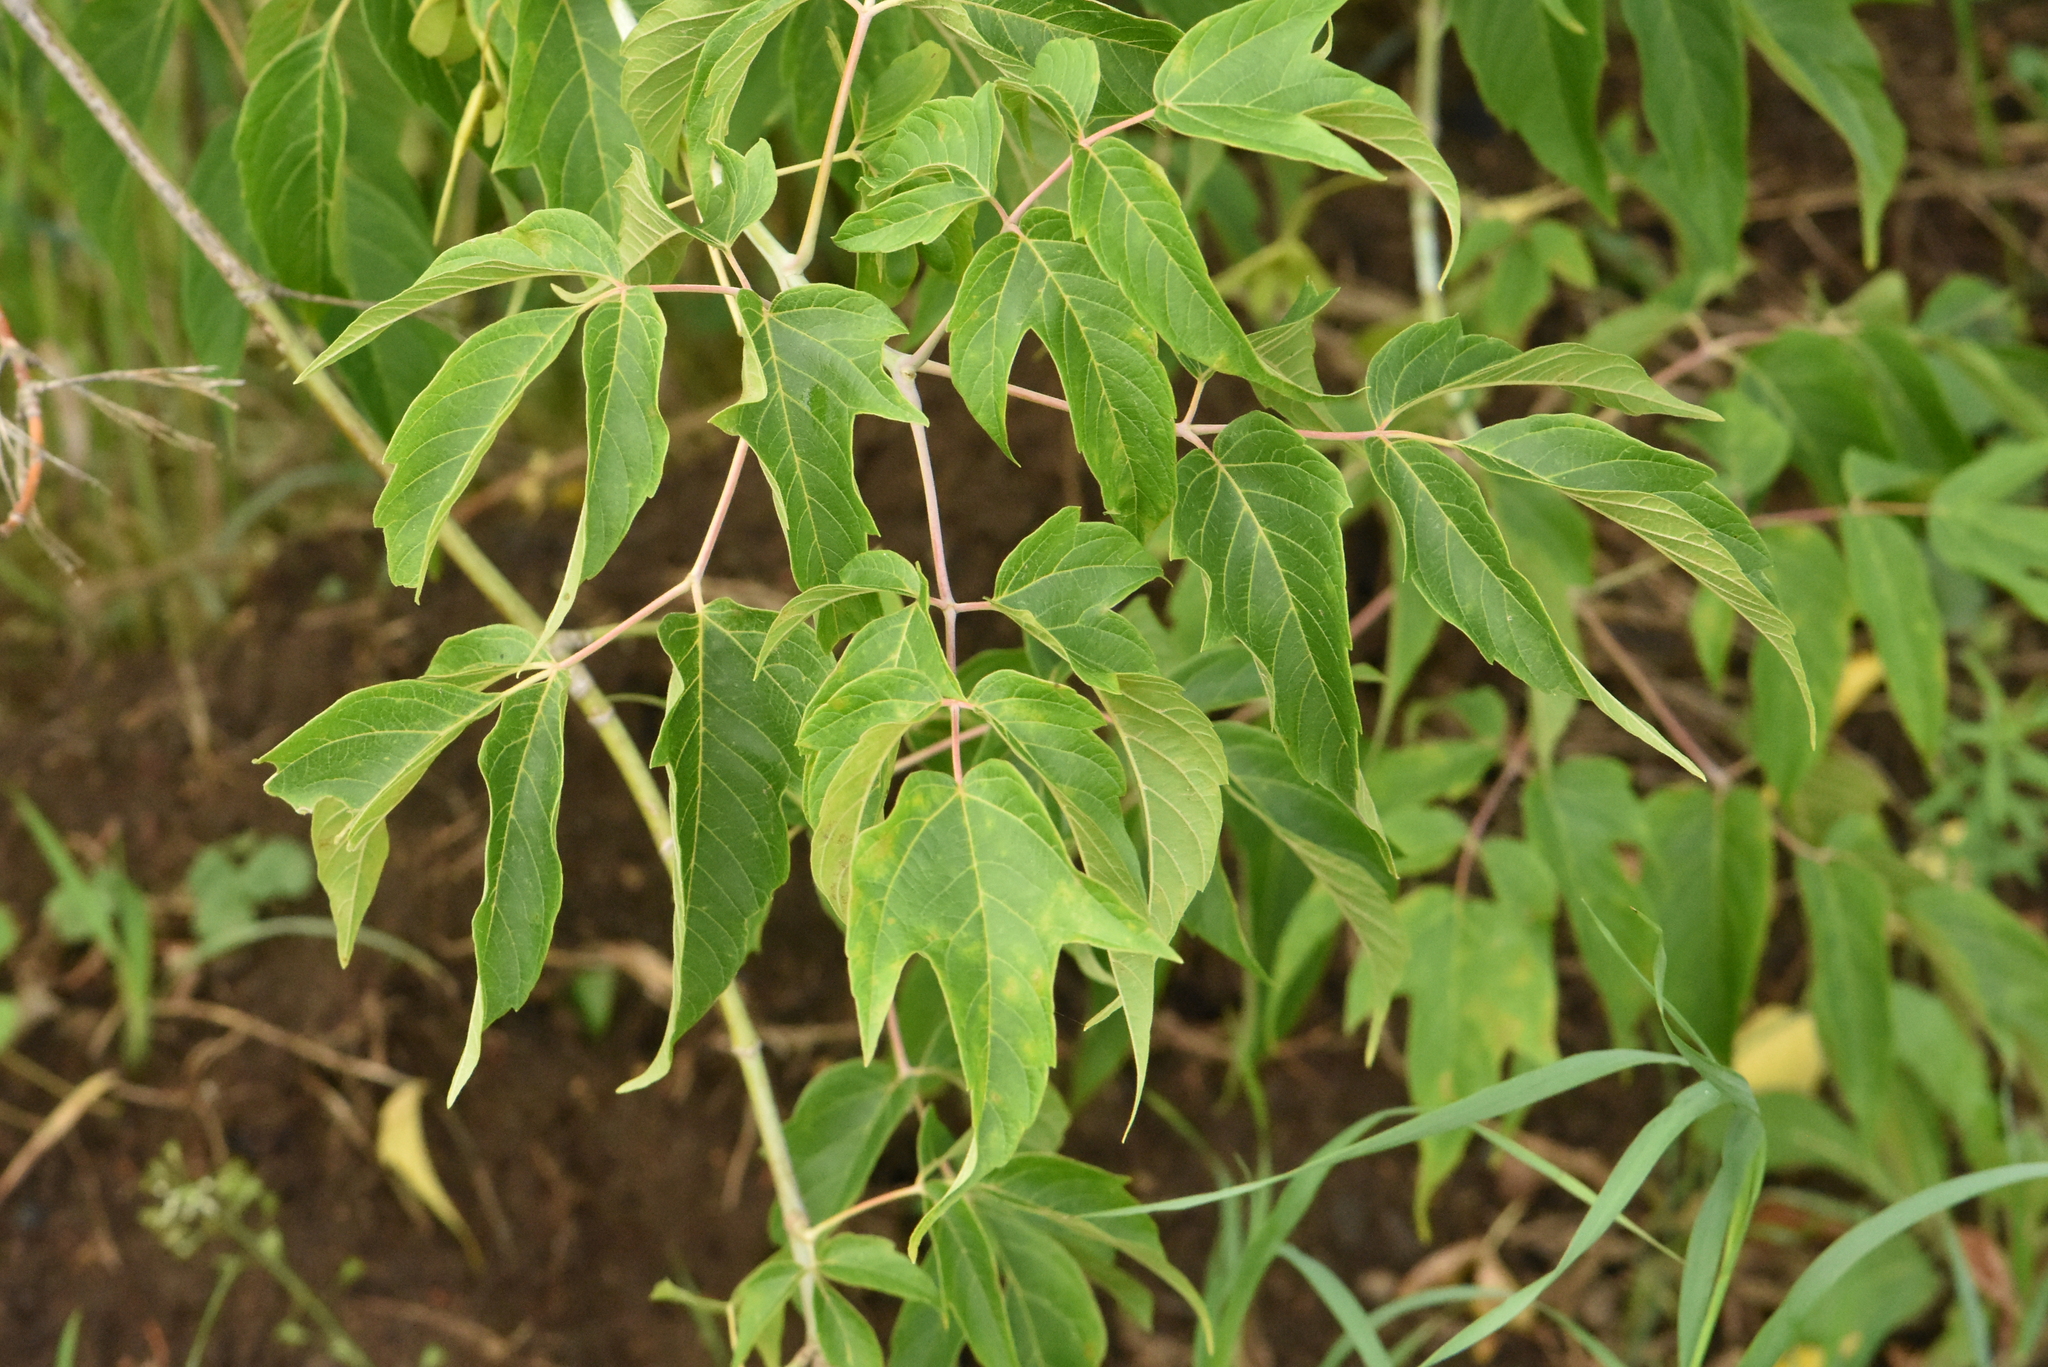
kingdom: Plantae
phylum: Tracheophyta
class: Magnoliopsida
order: Sapindales
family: Sapindaceae
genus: Acer
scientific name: Acer negundo
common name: Ashleaf maple
